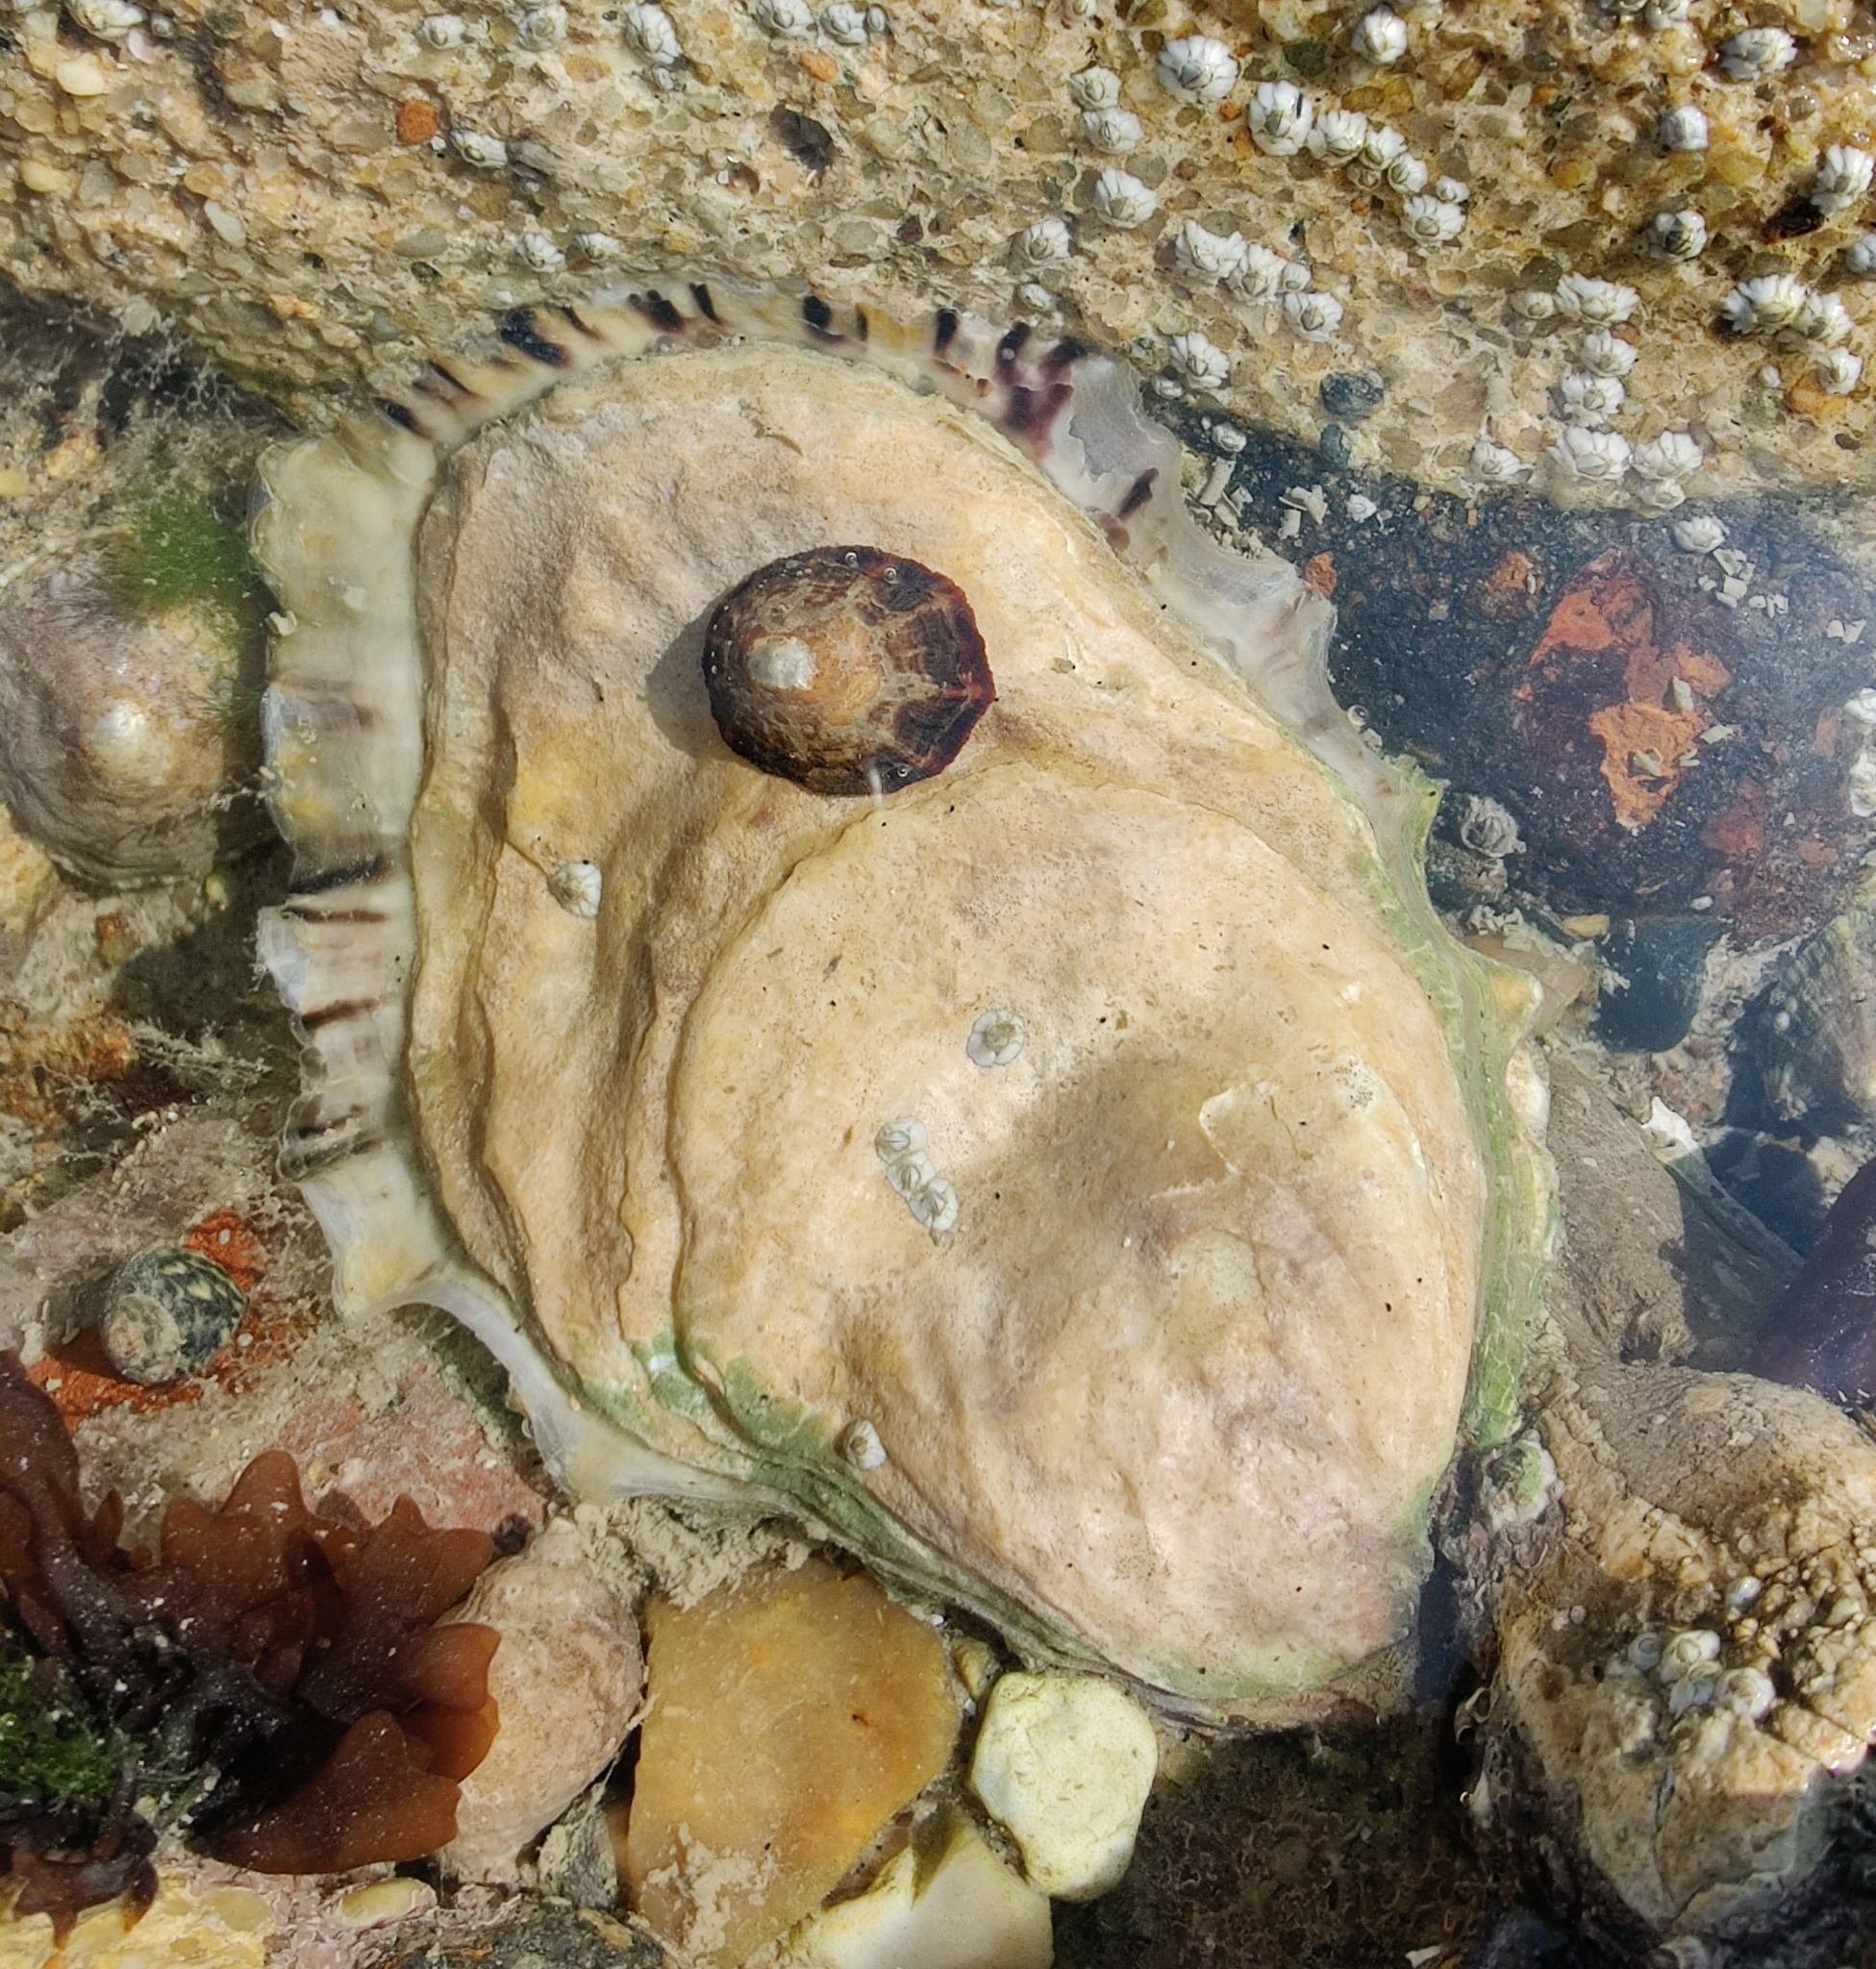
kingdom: Animalia
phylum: Mollusca
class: Bivalvia
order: Ostreida
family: Ostreidae
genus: Magallana
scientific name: Magallana gigas
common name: Pacific oyster
